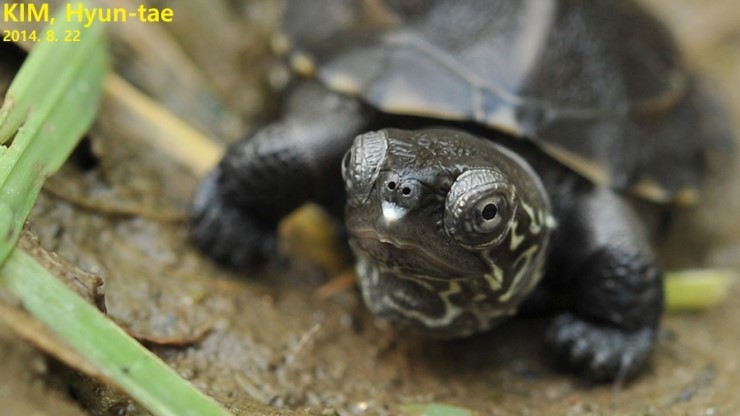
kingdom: Animalia
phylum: Chordata
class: Testudines
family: Geoemydidae
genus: Mauremys
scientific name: Mauremys reevesii
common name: Chinese pond turtle
